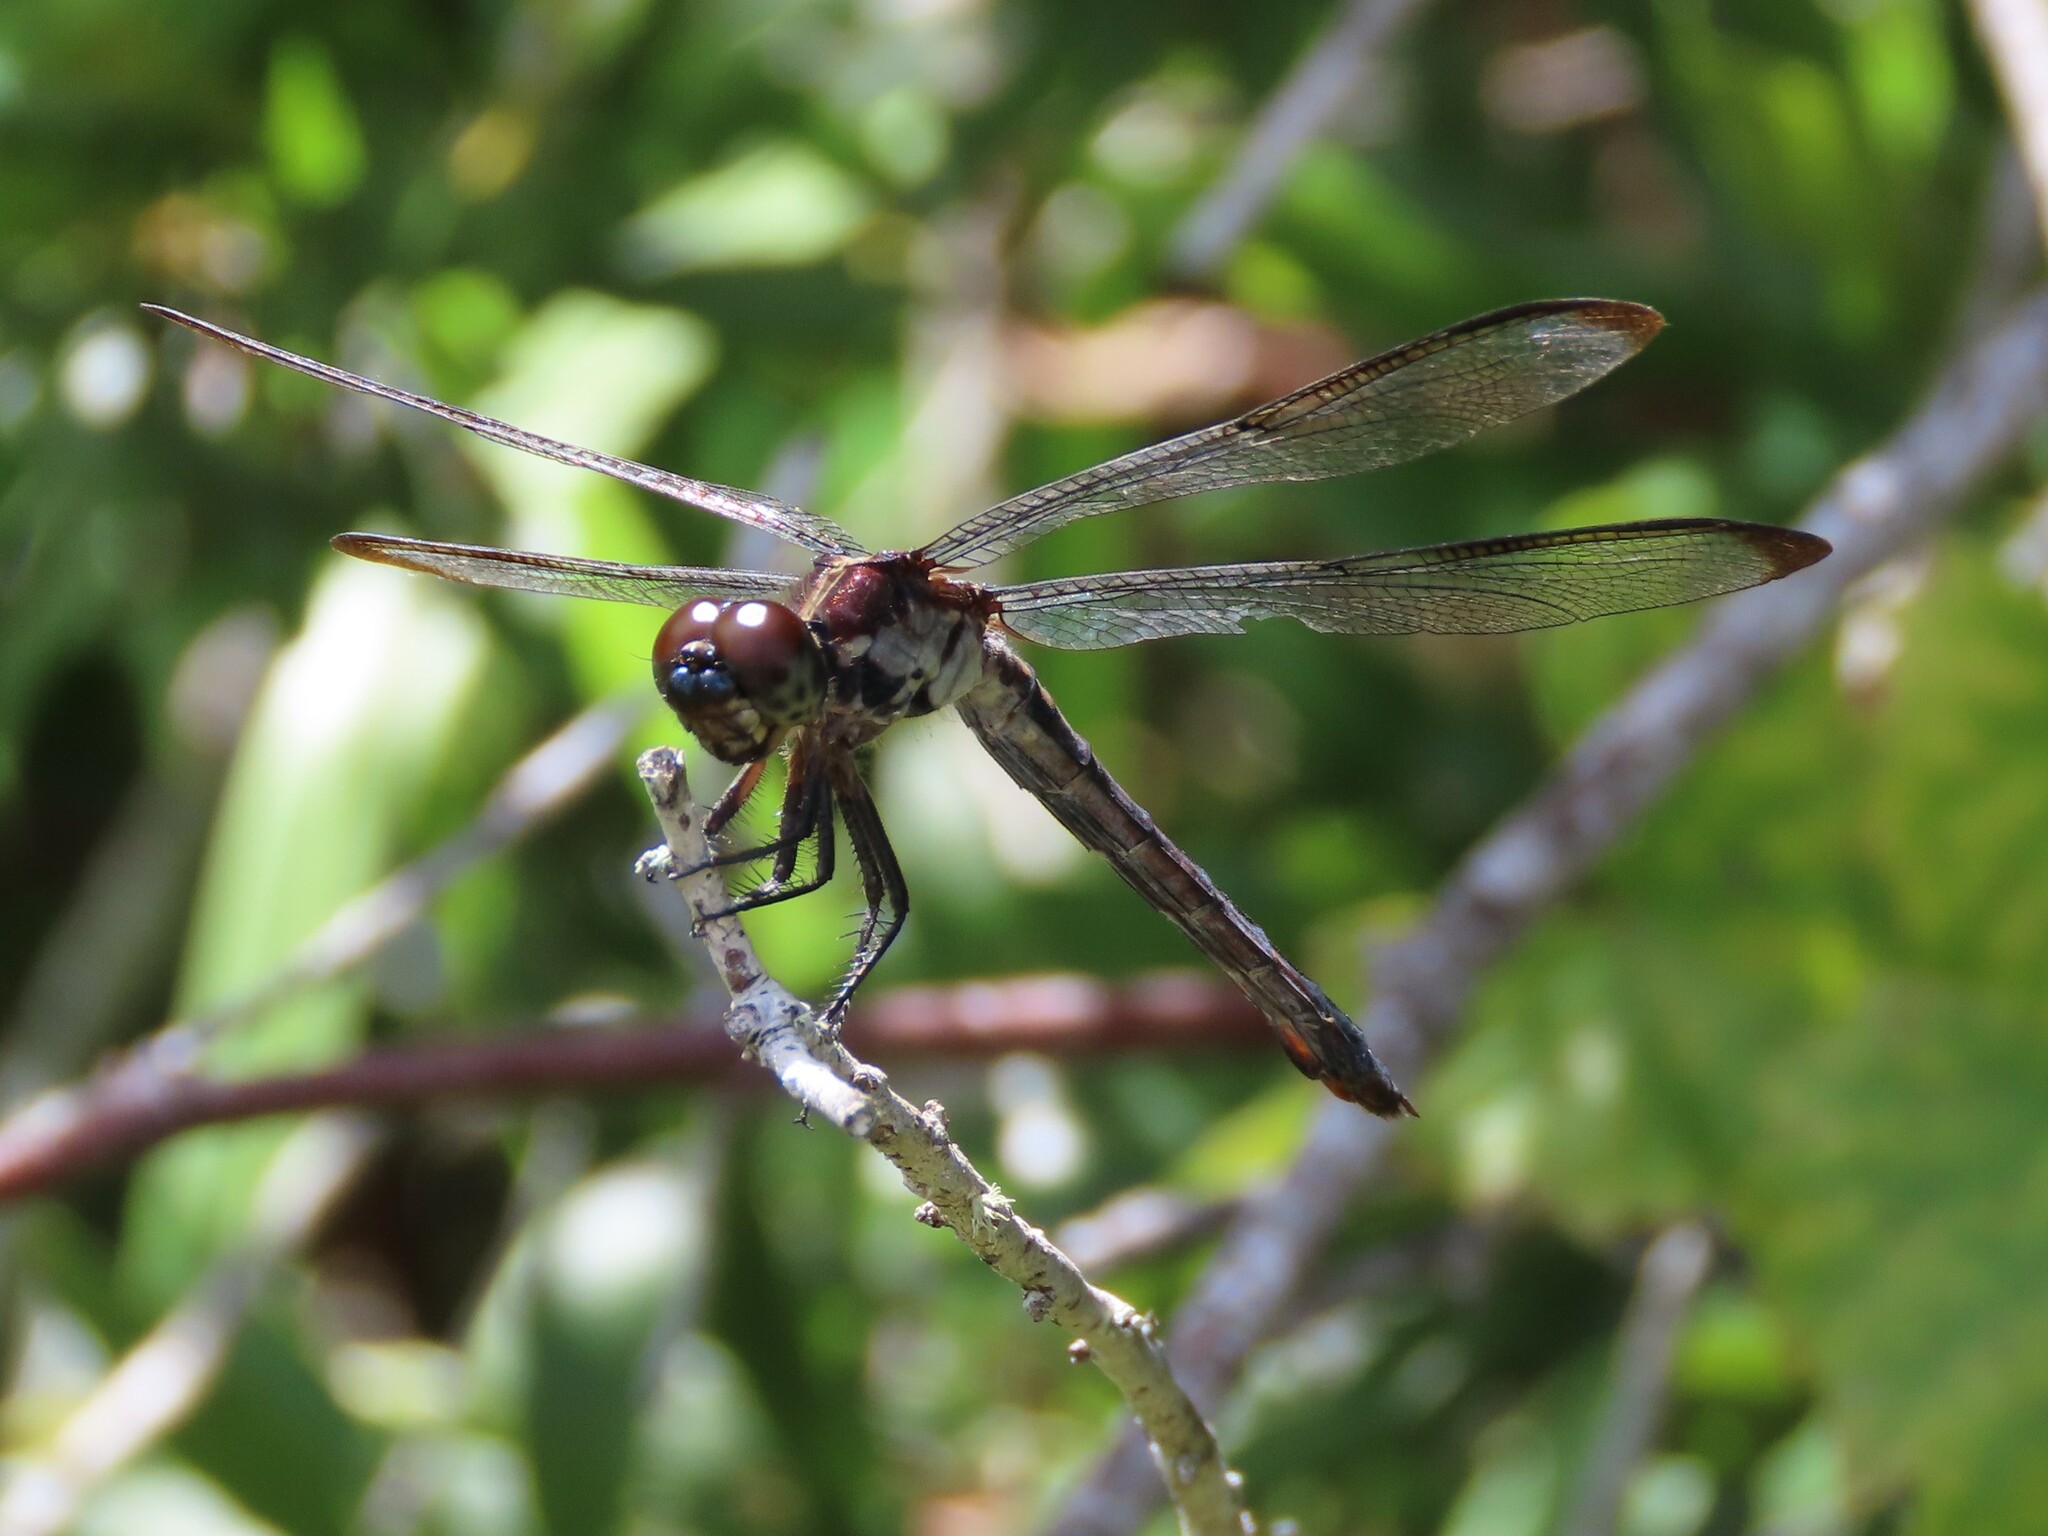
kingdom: Animalia
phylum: Arthropoda
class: Insecta
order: Odonata
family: Libellulidae
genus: Libellula
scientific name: Libellula incesta
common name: Slaty skimmer
